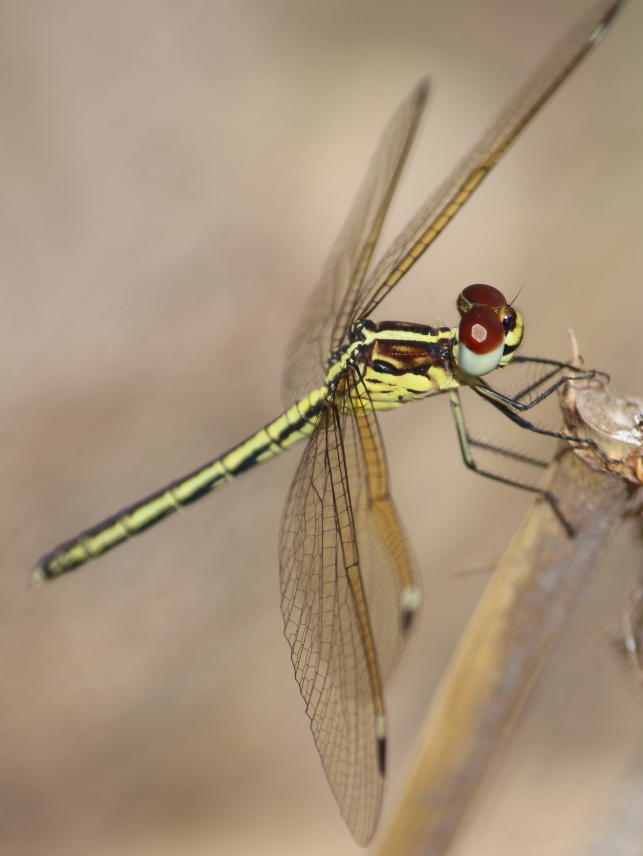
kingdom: Animalia
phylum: Arthropoda
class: Insecta
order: Odonata
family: Libellulidae
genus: Hemistigma
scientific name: Hemistigma albipunctum
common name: African pied-spot
